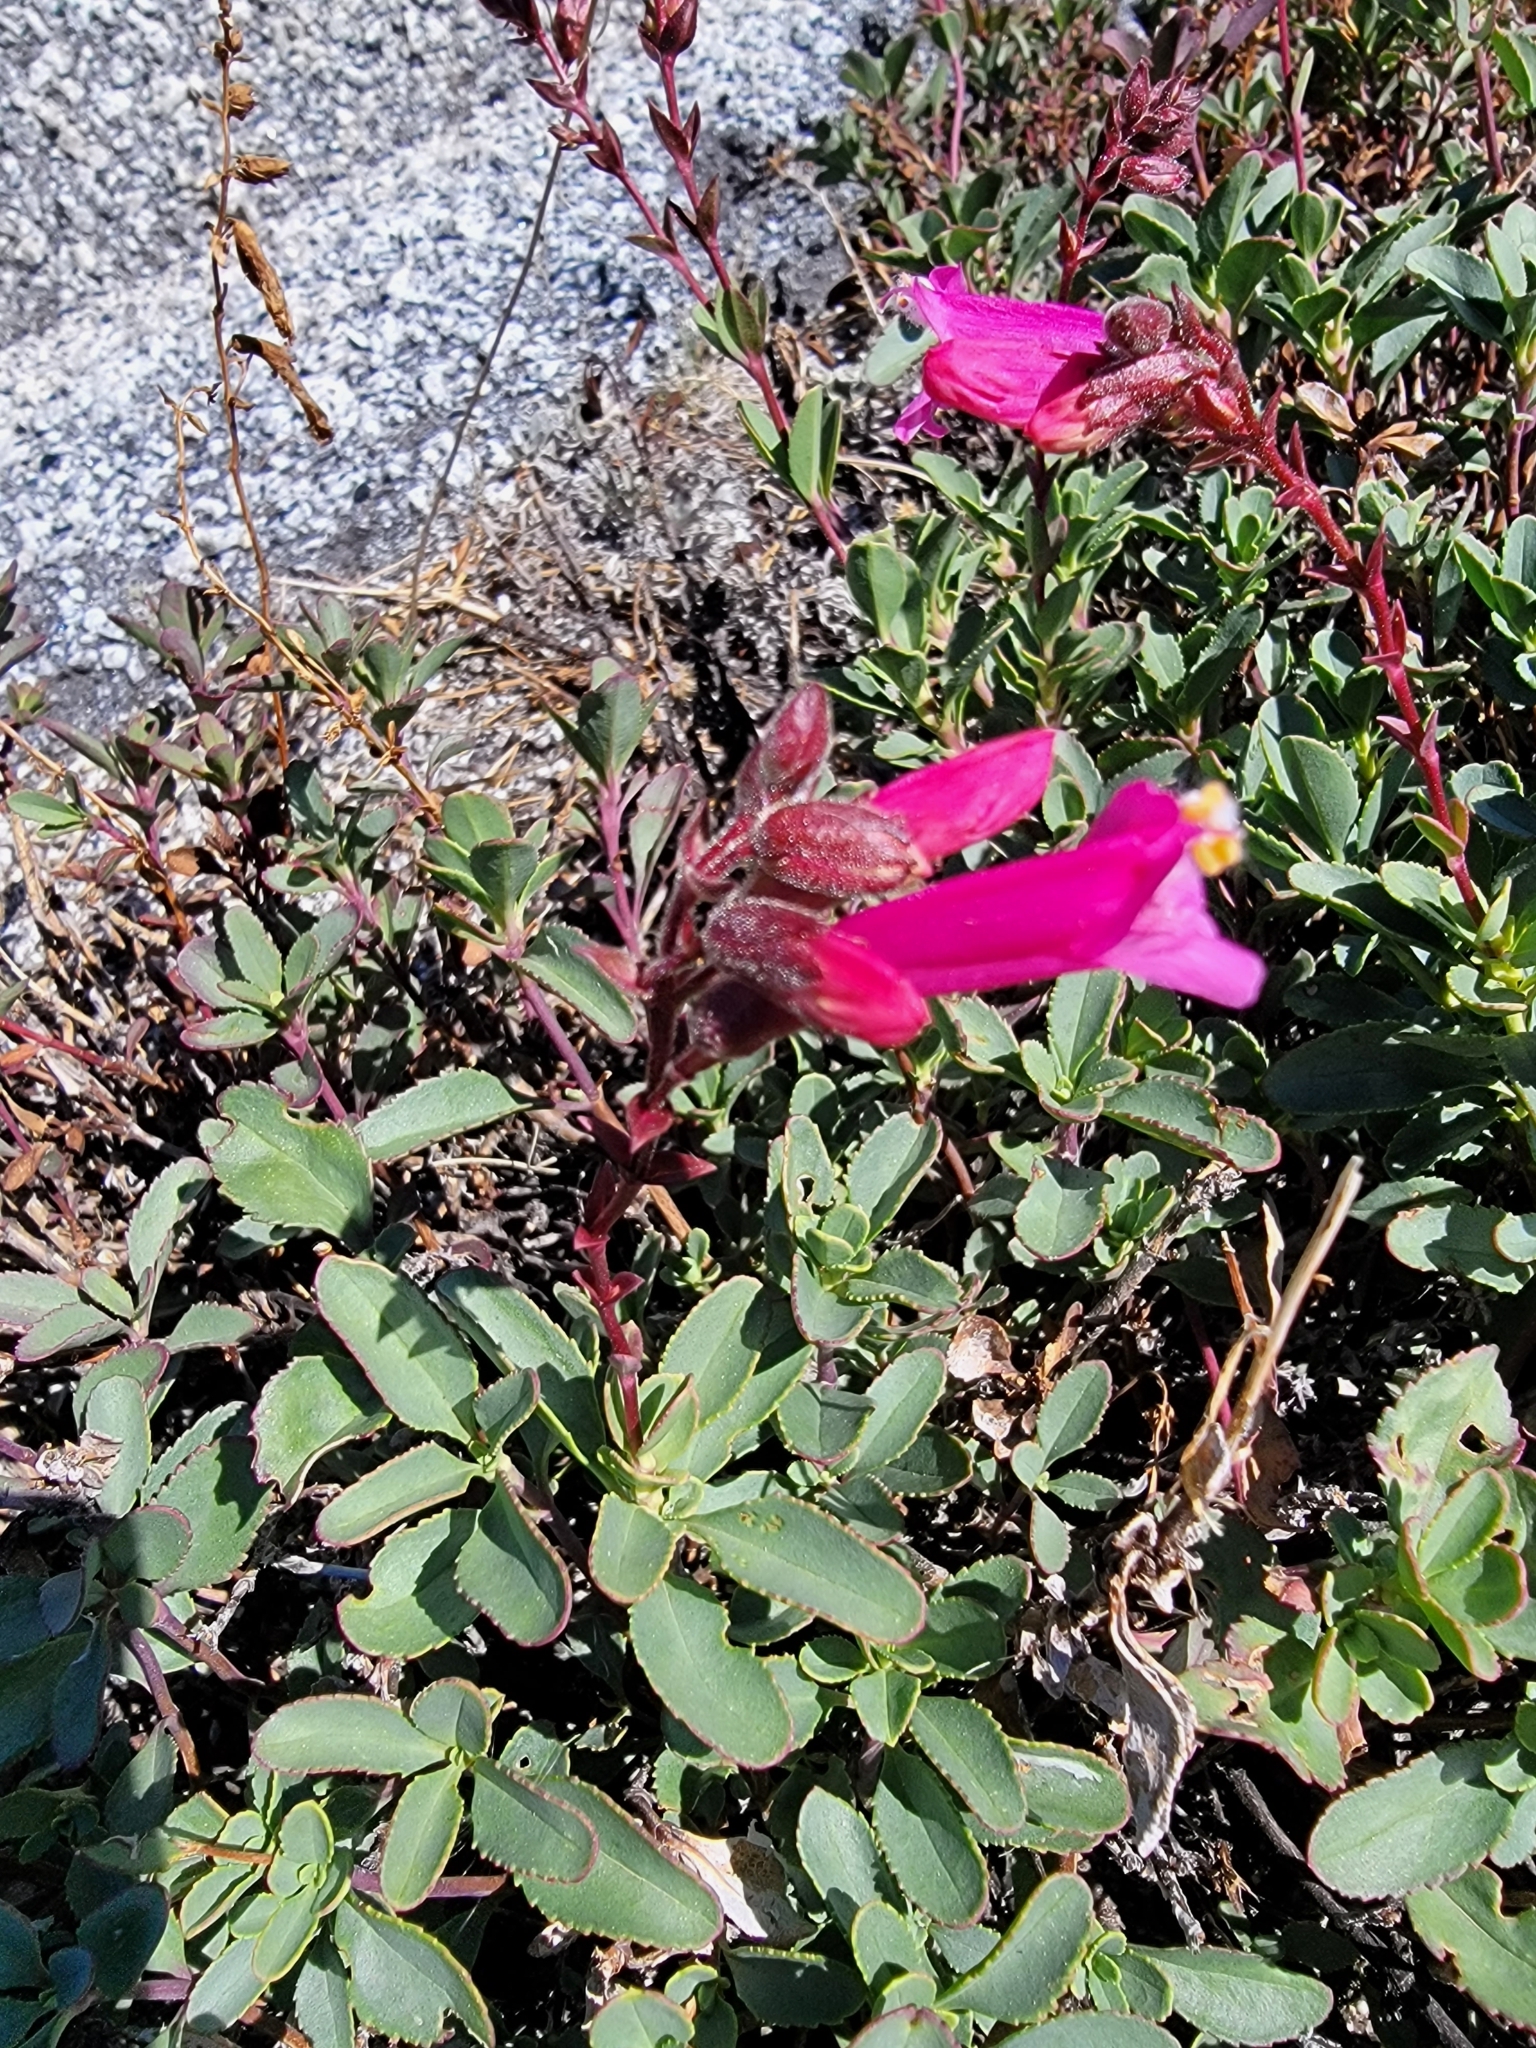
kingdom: Plantae
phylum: Tracheophyta
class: Magnoliopsida
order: Lamiales
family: Plantaginaceae
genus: Penstemon
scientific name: Penstemon newberryi
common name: Mountain-pride
